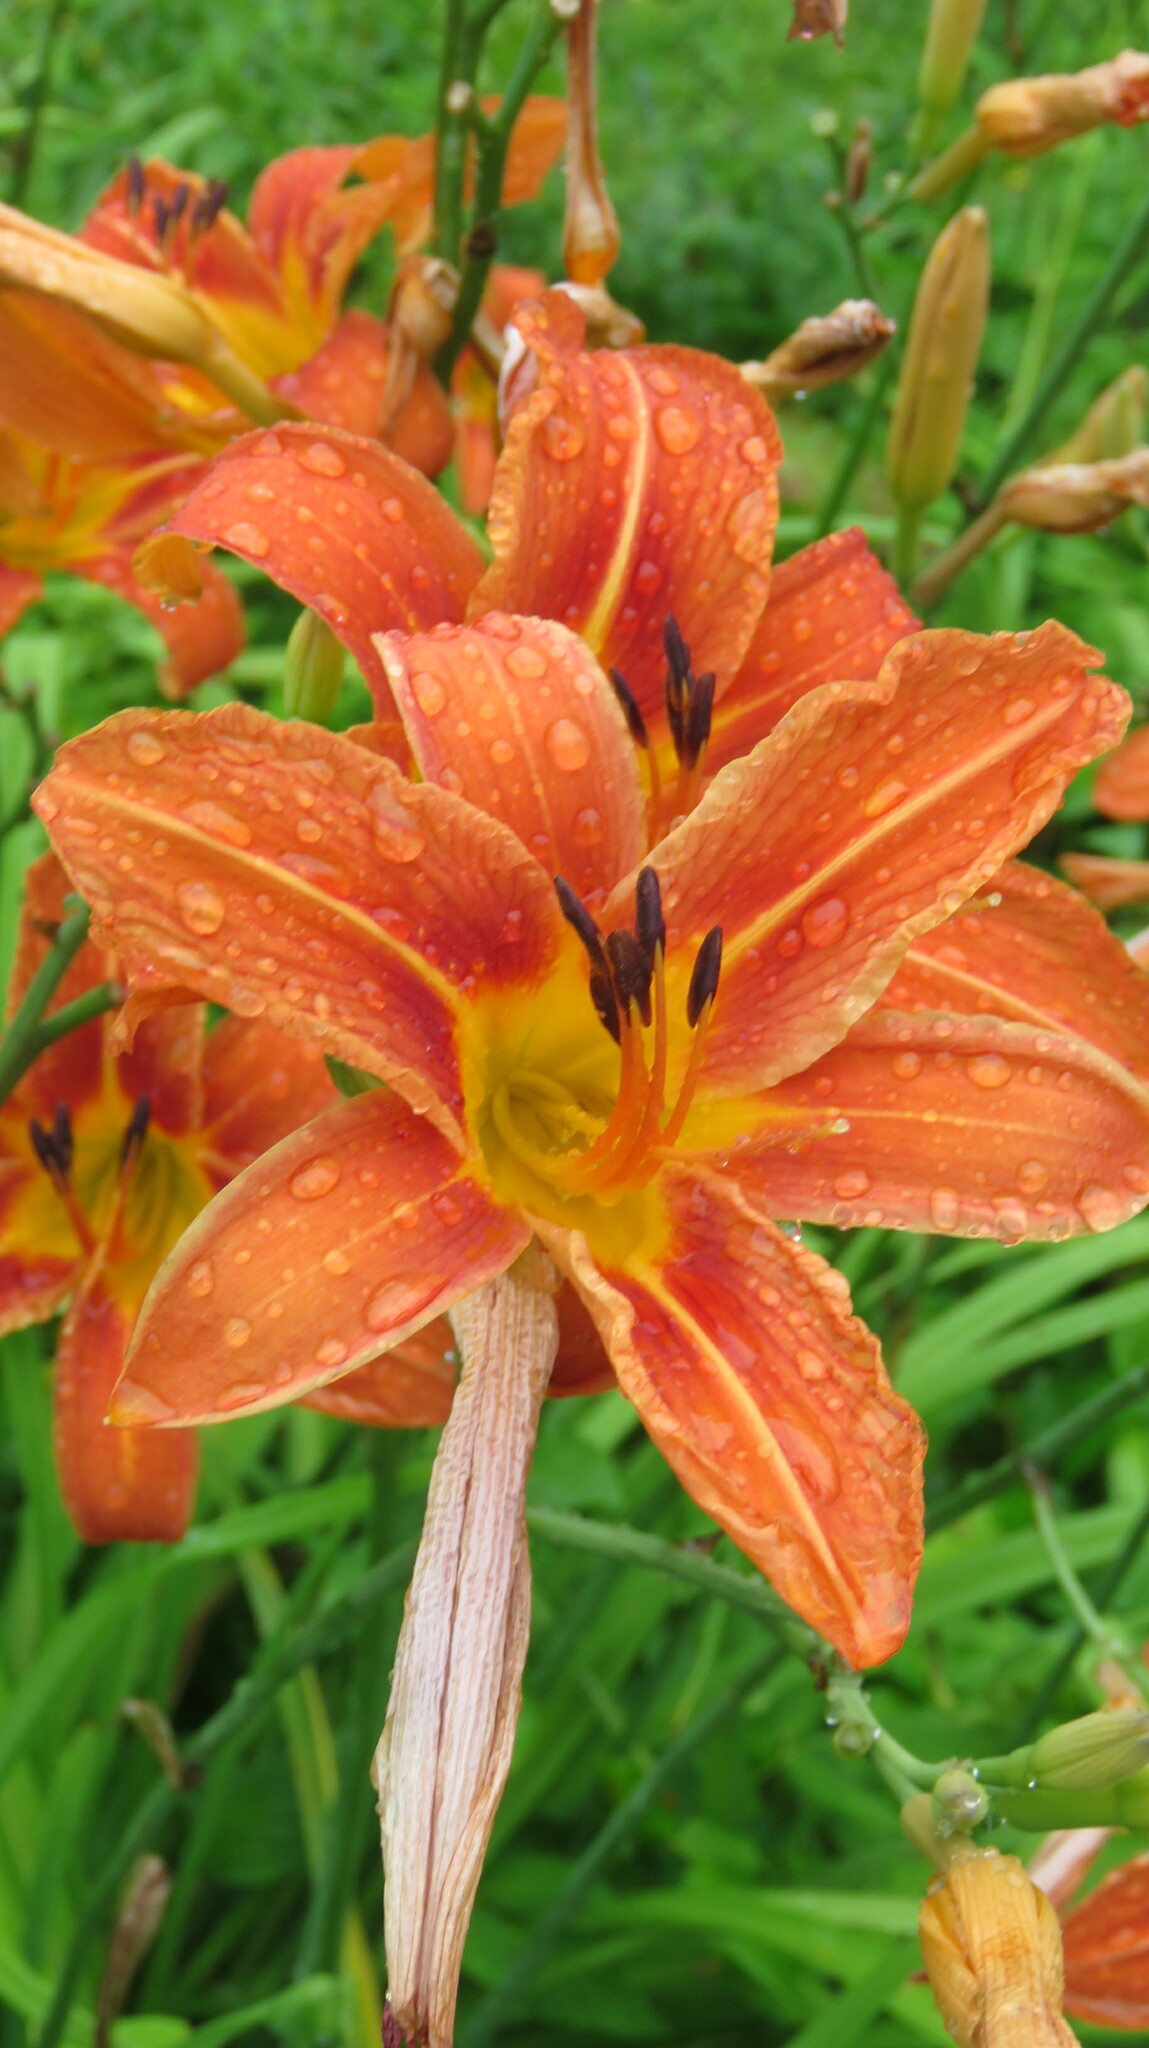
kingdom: Plantae
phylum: Tracheophyta
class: Liliopsida
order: Asparagales
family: Asphodelaceae
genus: Hemerocallis
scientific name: Hemerocallis fulva
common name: Orange day-lily
